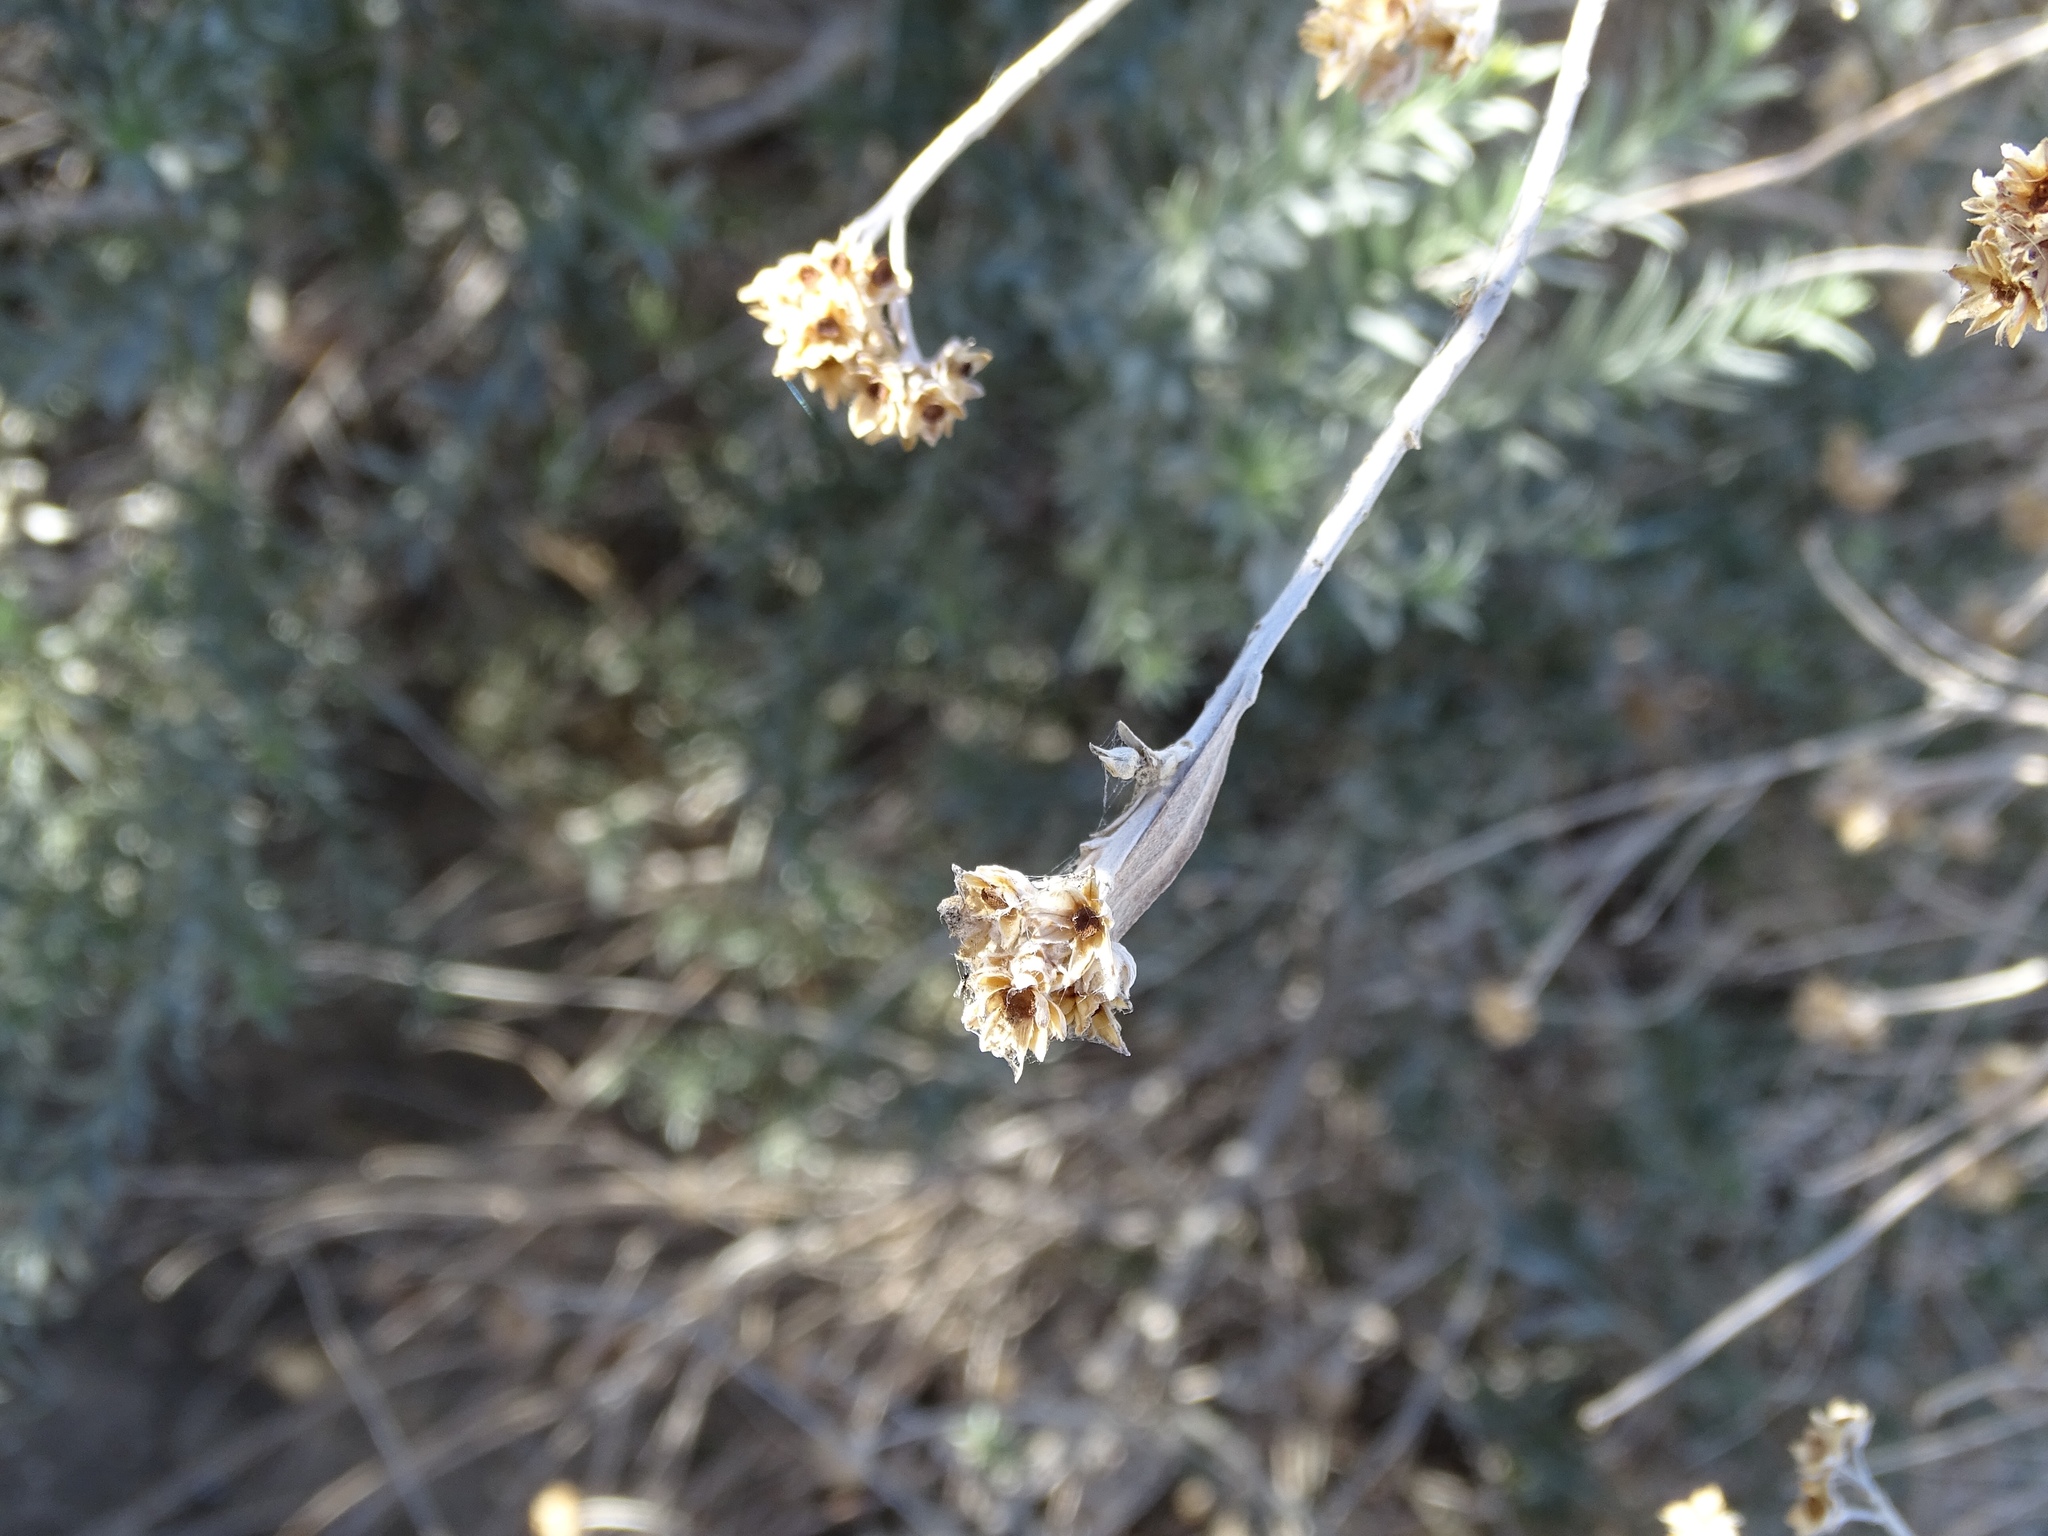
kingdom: Plantae
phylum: Tracheophyta
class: Magnoliopsida
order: Asterales
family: Asteraceae
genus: Pluchea
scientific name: Pluchea sericea
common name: Arrow-weed
